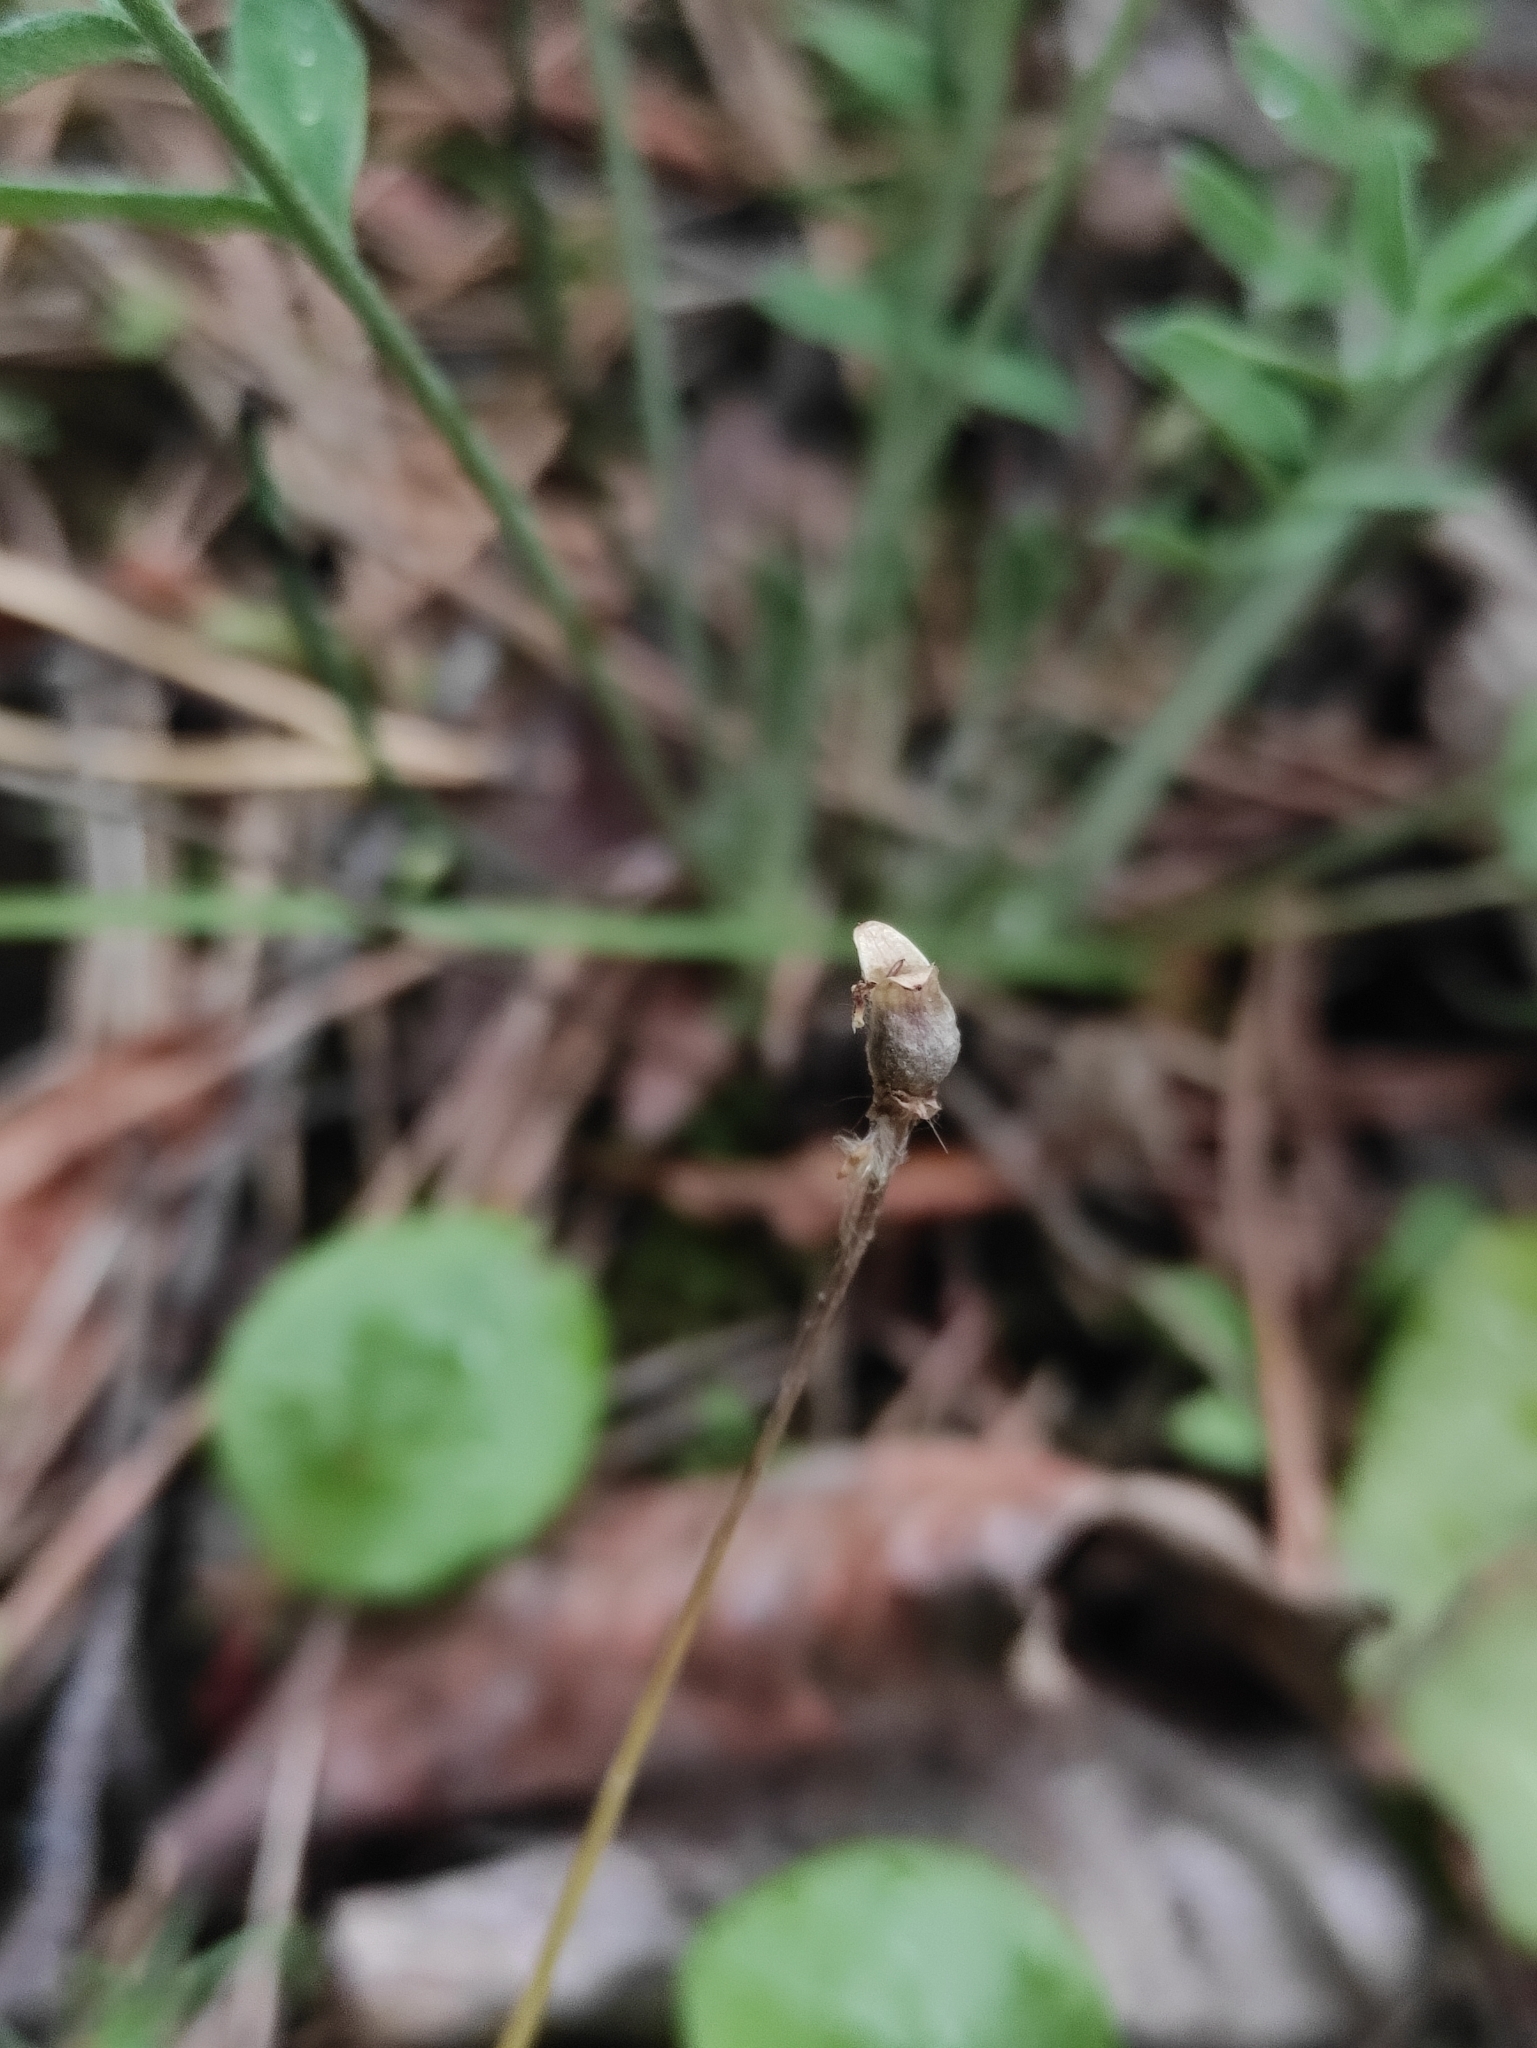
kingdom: Plantae
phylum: Tracheophyta
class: Magnoliopsida
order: Lamiales
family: Lentibulariaceae
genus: Pinguicula
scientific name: Pinguicula alpina
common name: Alpine butterwort
